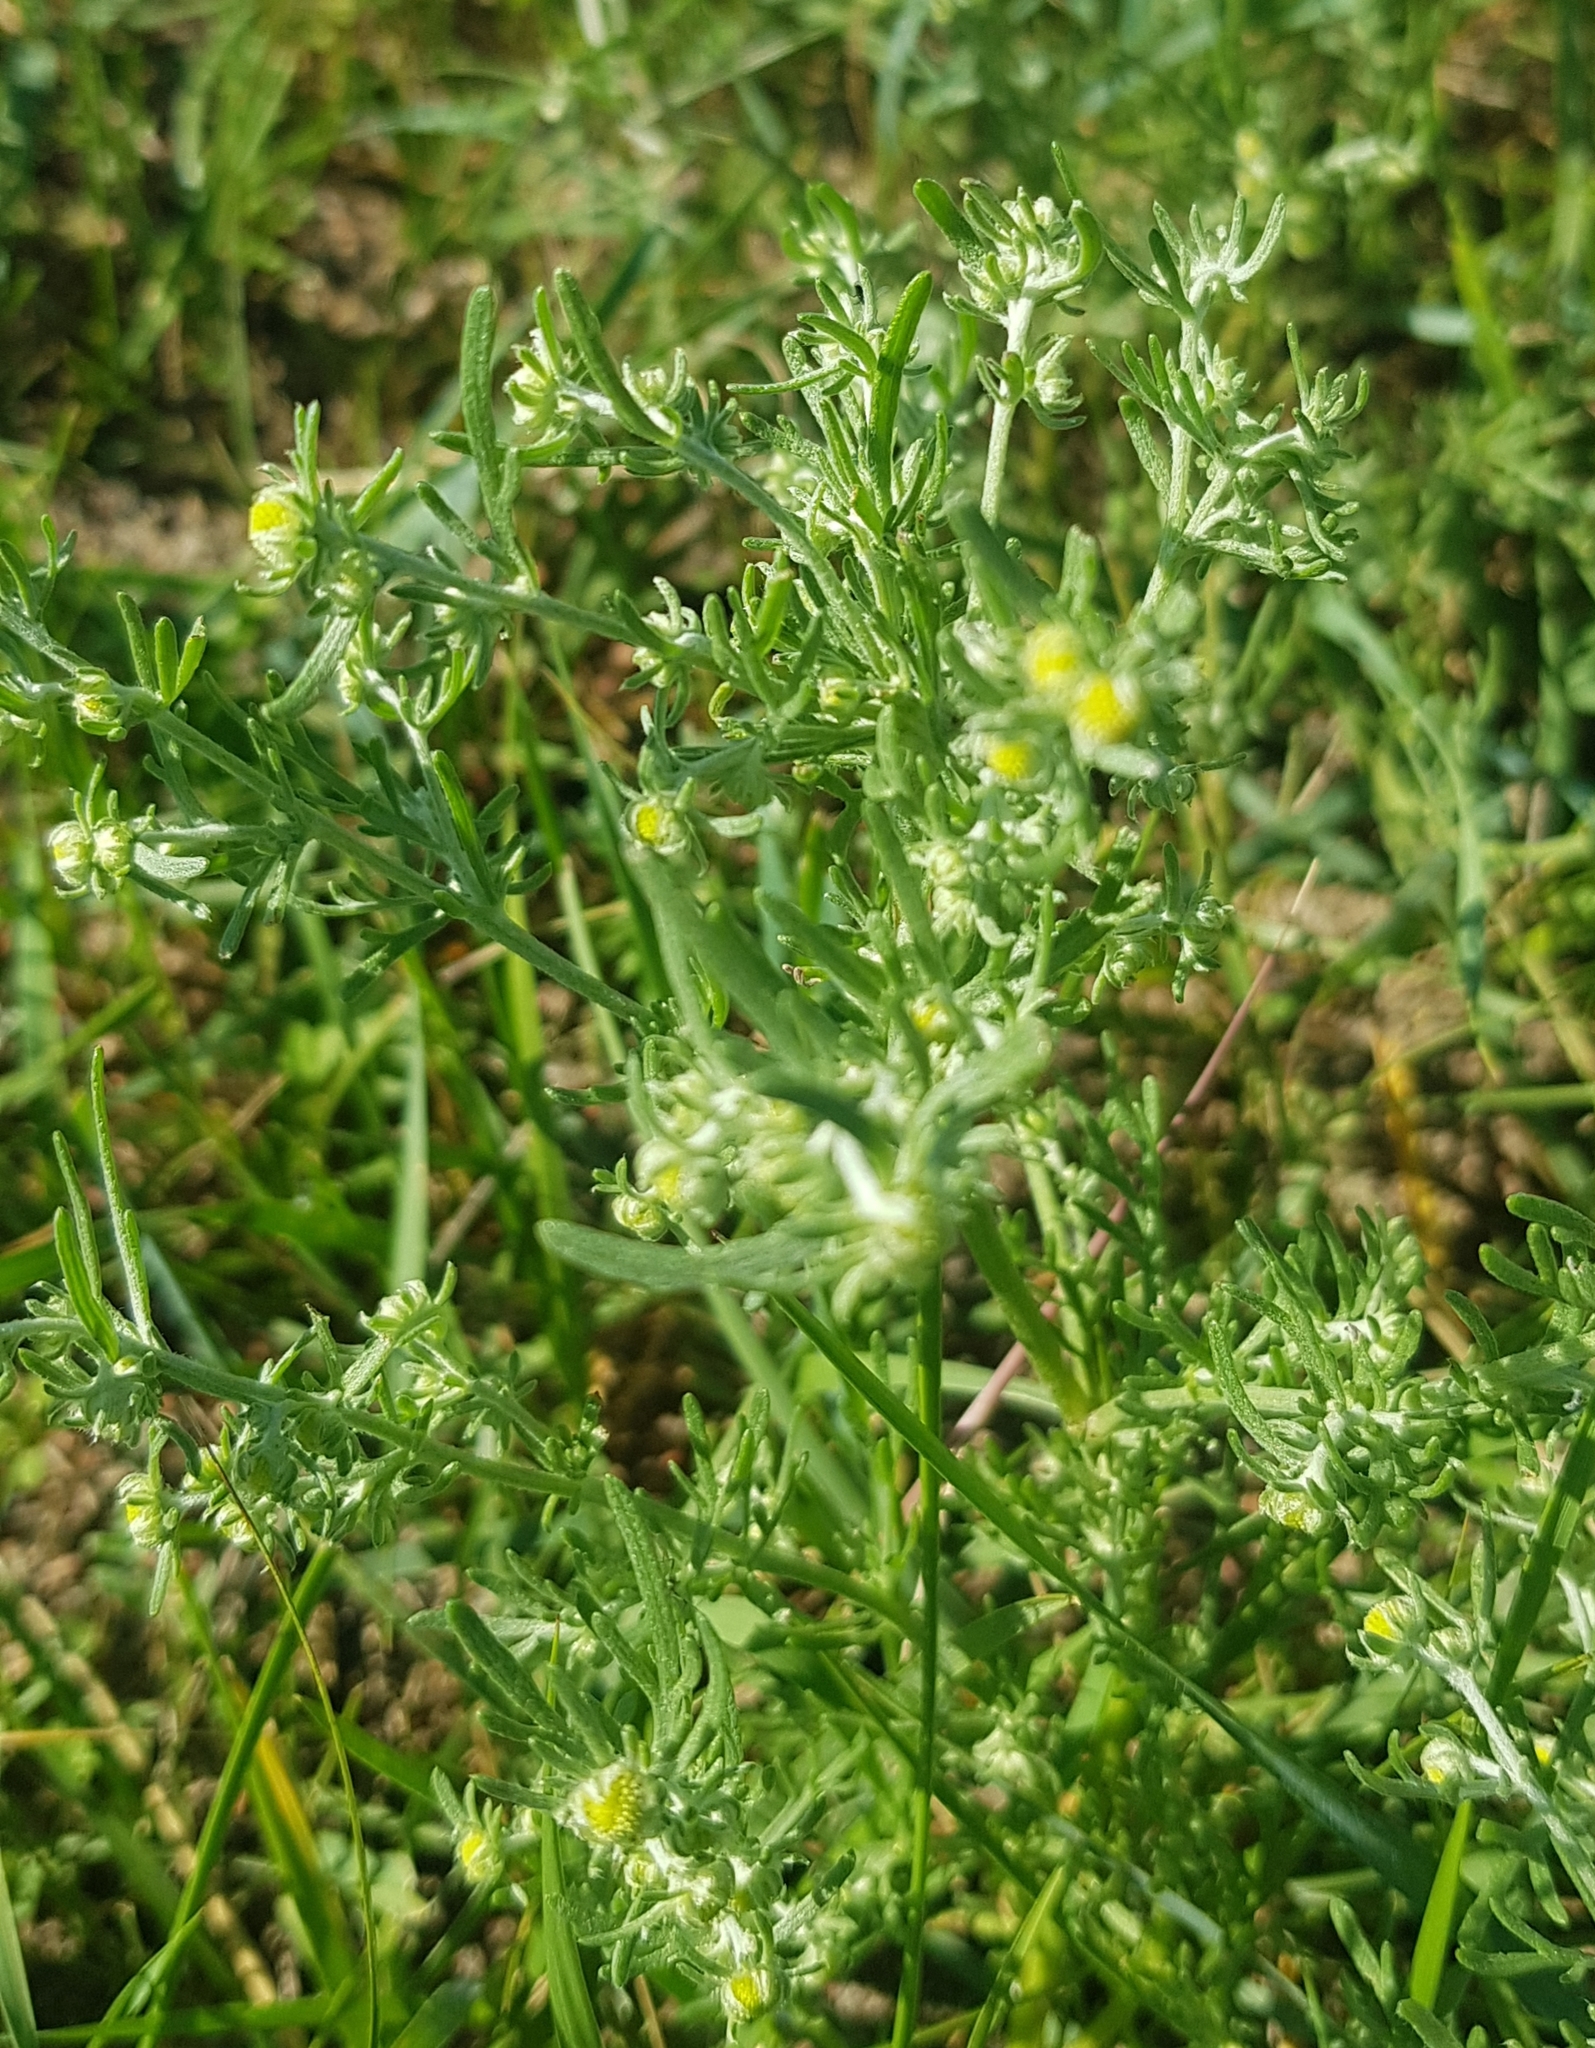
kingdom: Plantae
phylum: Tracheophyta
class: Magnoliopsida
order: Asterales
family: Asteraceae
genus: Artemisia
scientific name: Artemisia sieversiana
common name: Sieversian wormwood
